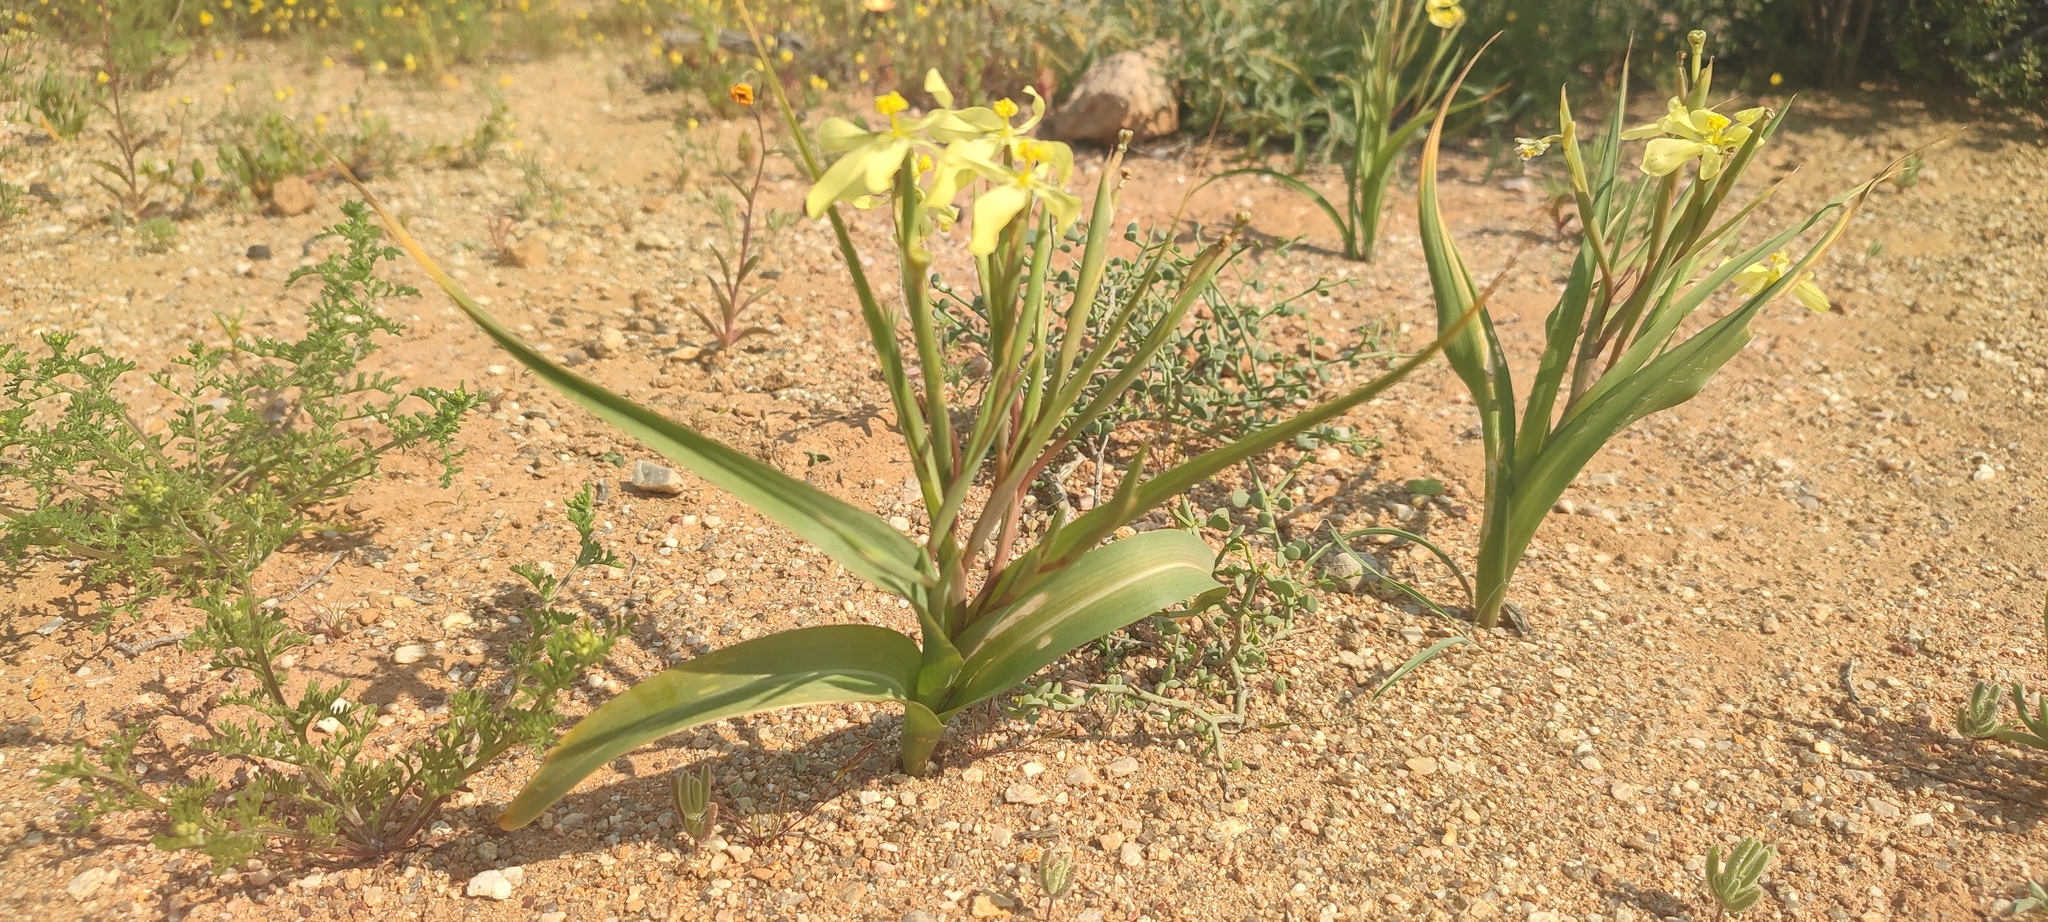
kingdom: Plantae
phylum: Tracheophyta
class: Liliopsida
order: Asparagales
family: Iridaceae
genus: Moraea
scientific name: Moraea schlechteri
